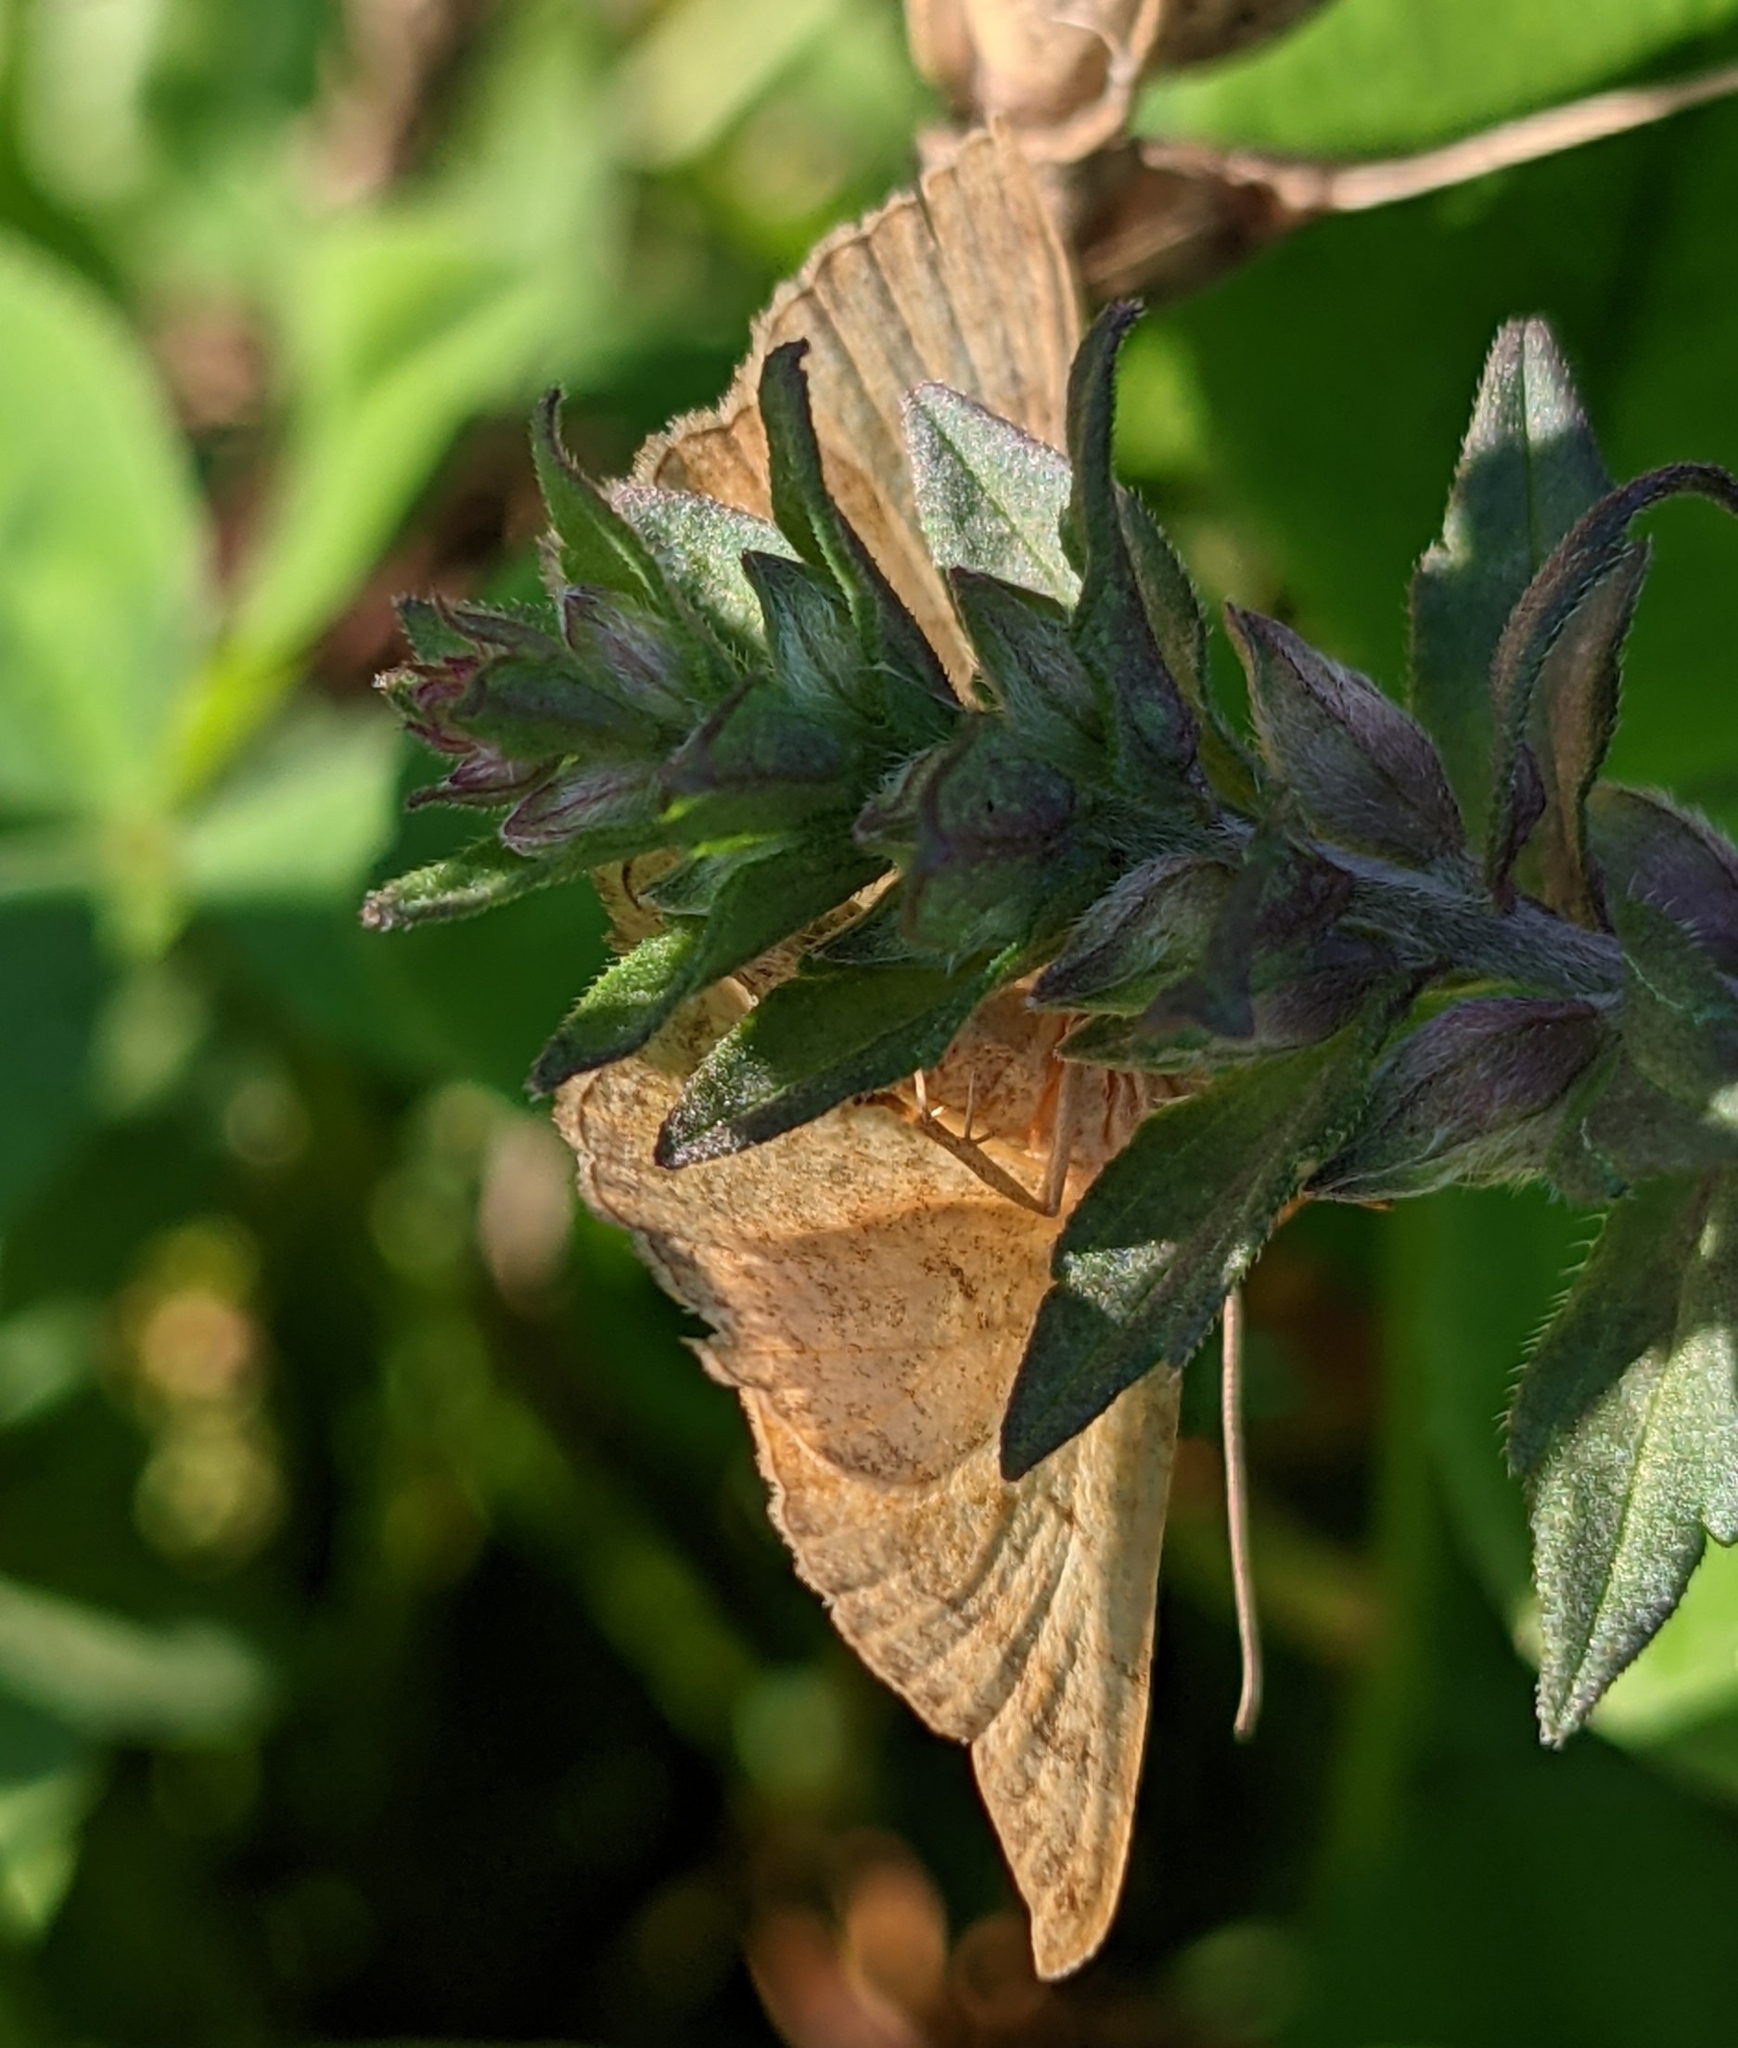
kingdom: Animalia
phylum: Arthropoda
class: Insecta
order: Lepidoptera
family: Geometridae
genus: Camptogramma
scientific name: Camptogramma bilineata
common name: Yellow shell
